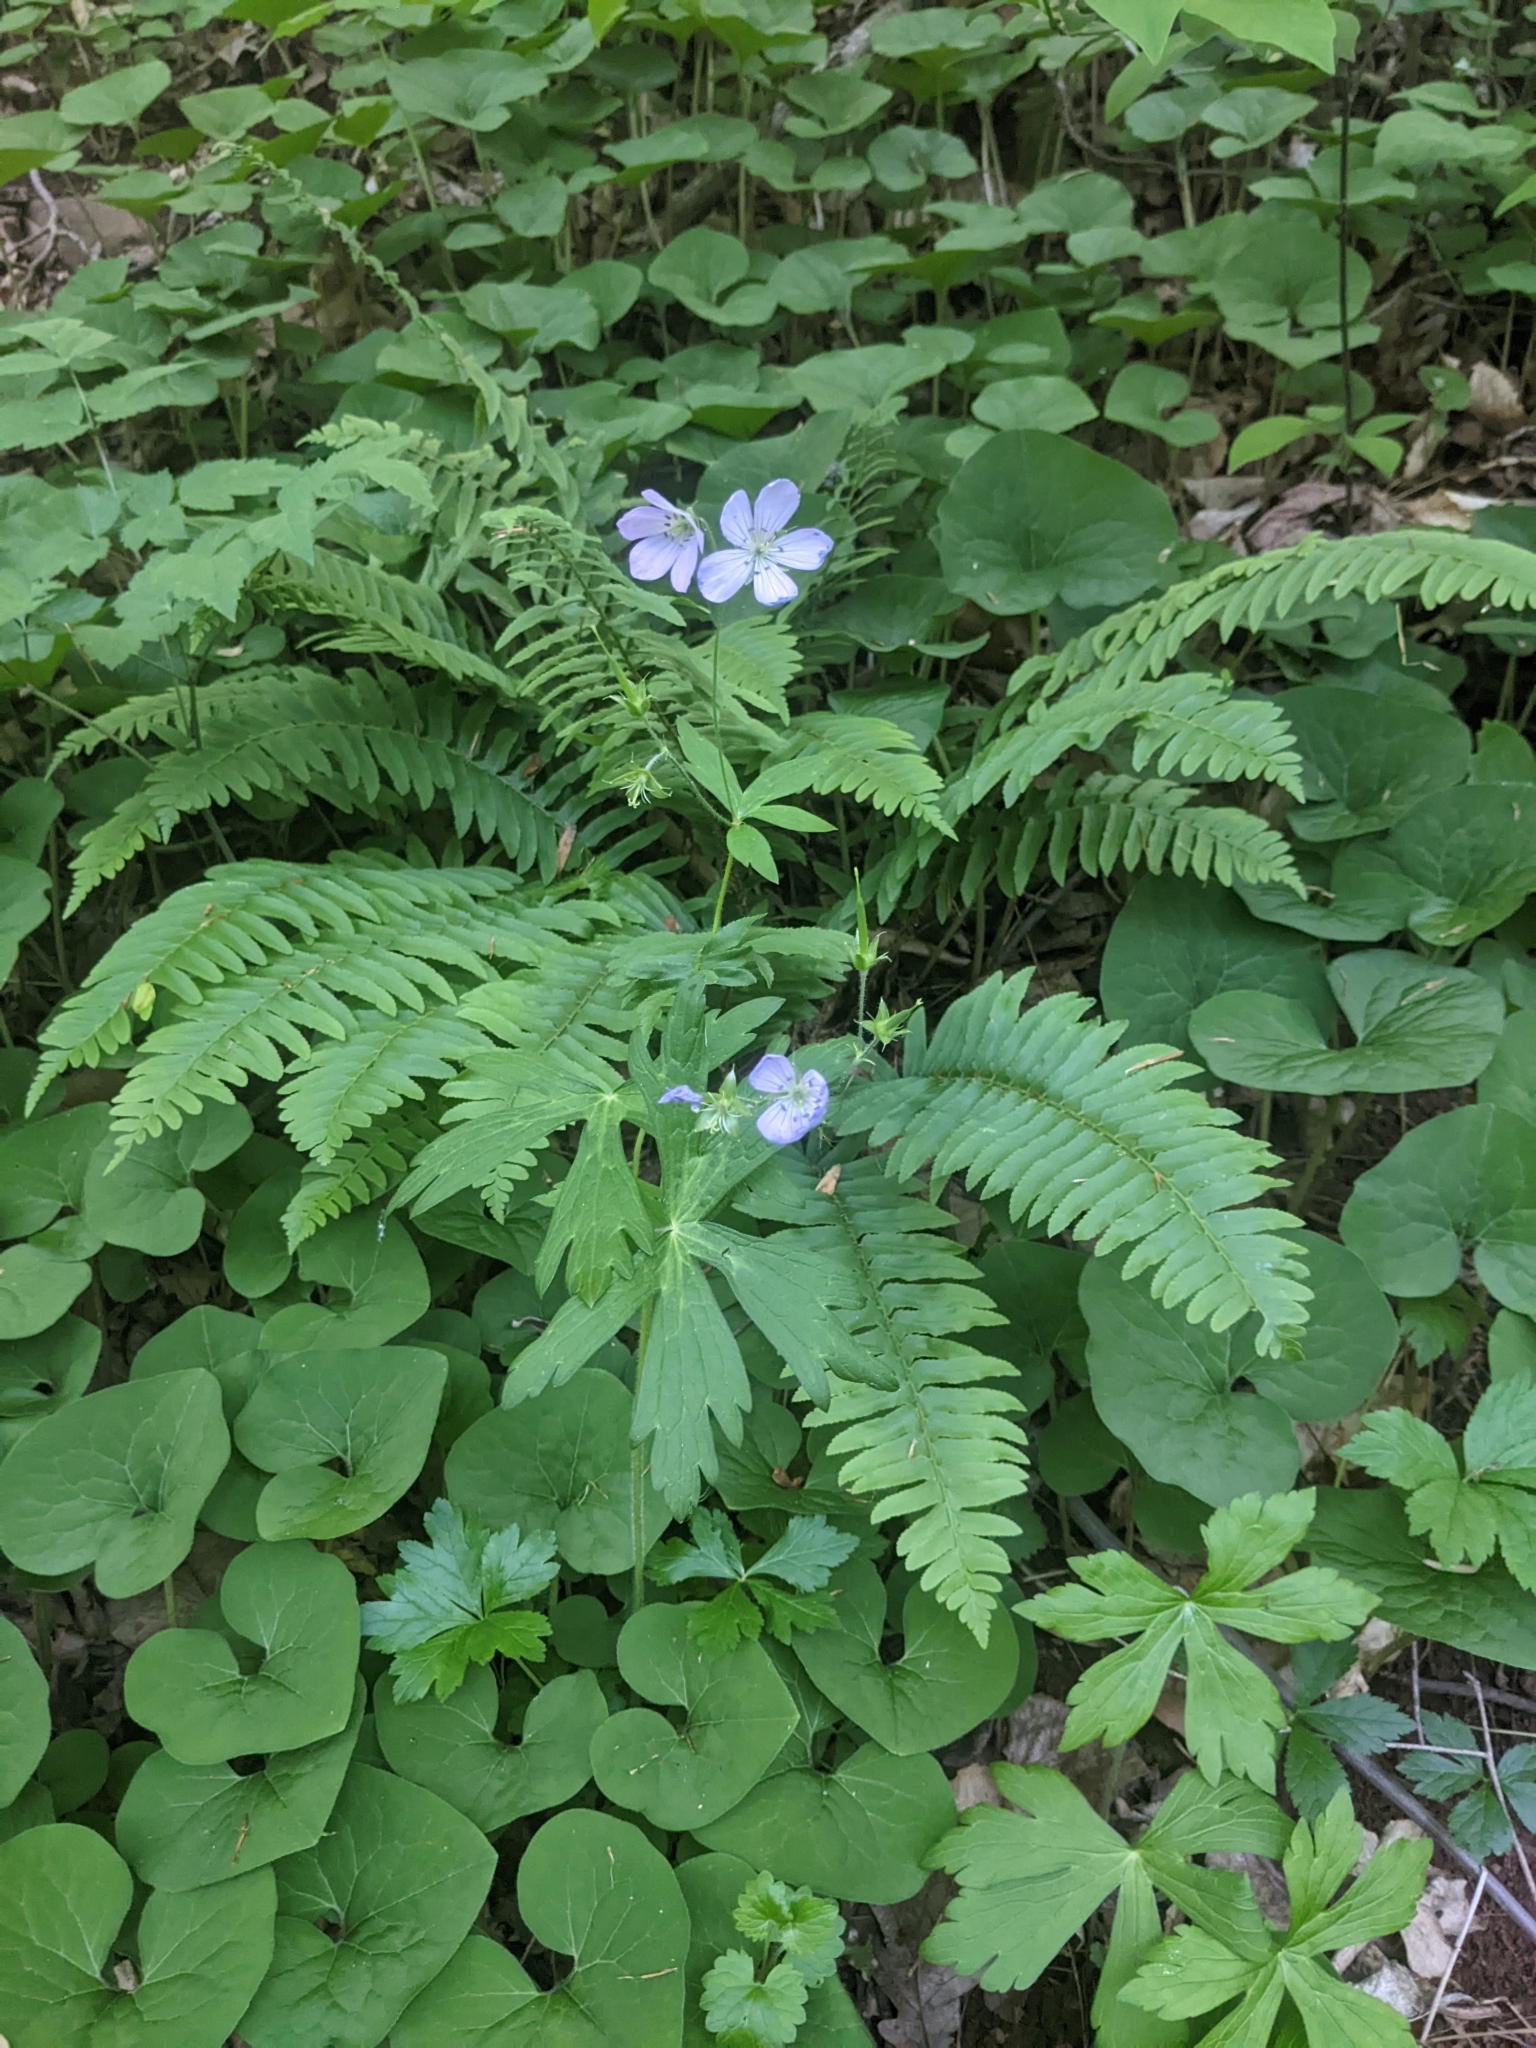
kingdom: Plantae
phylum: Tracheophyta
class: Magnoliopsida
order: Geraniales
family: Geraniaceae
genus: Geranium
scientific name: Geranium maculatum
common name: Spotted geranium
